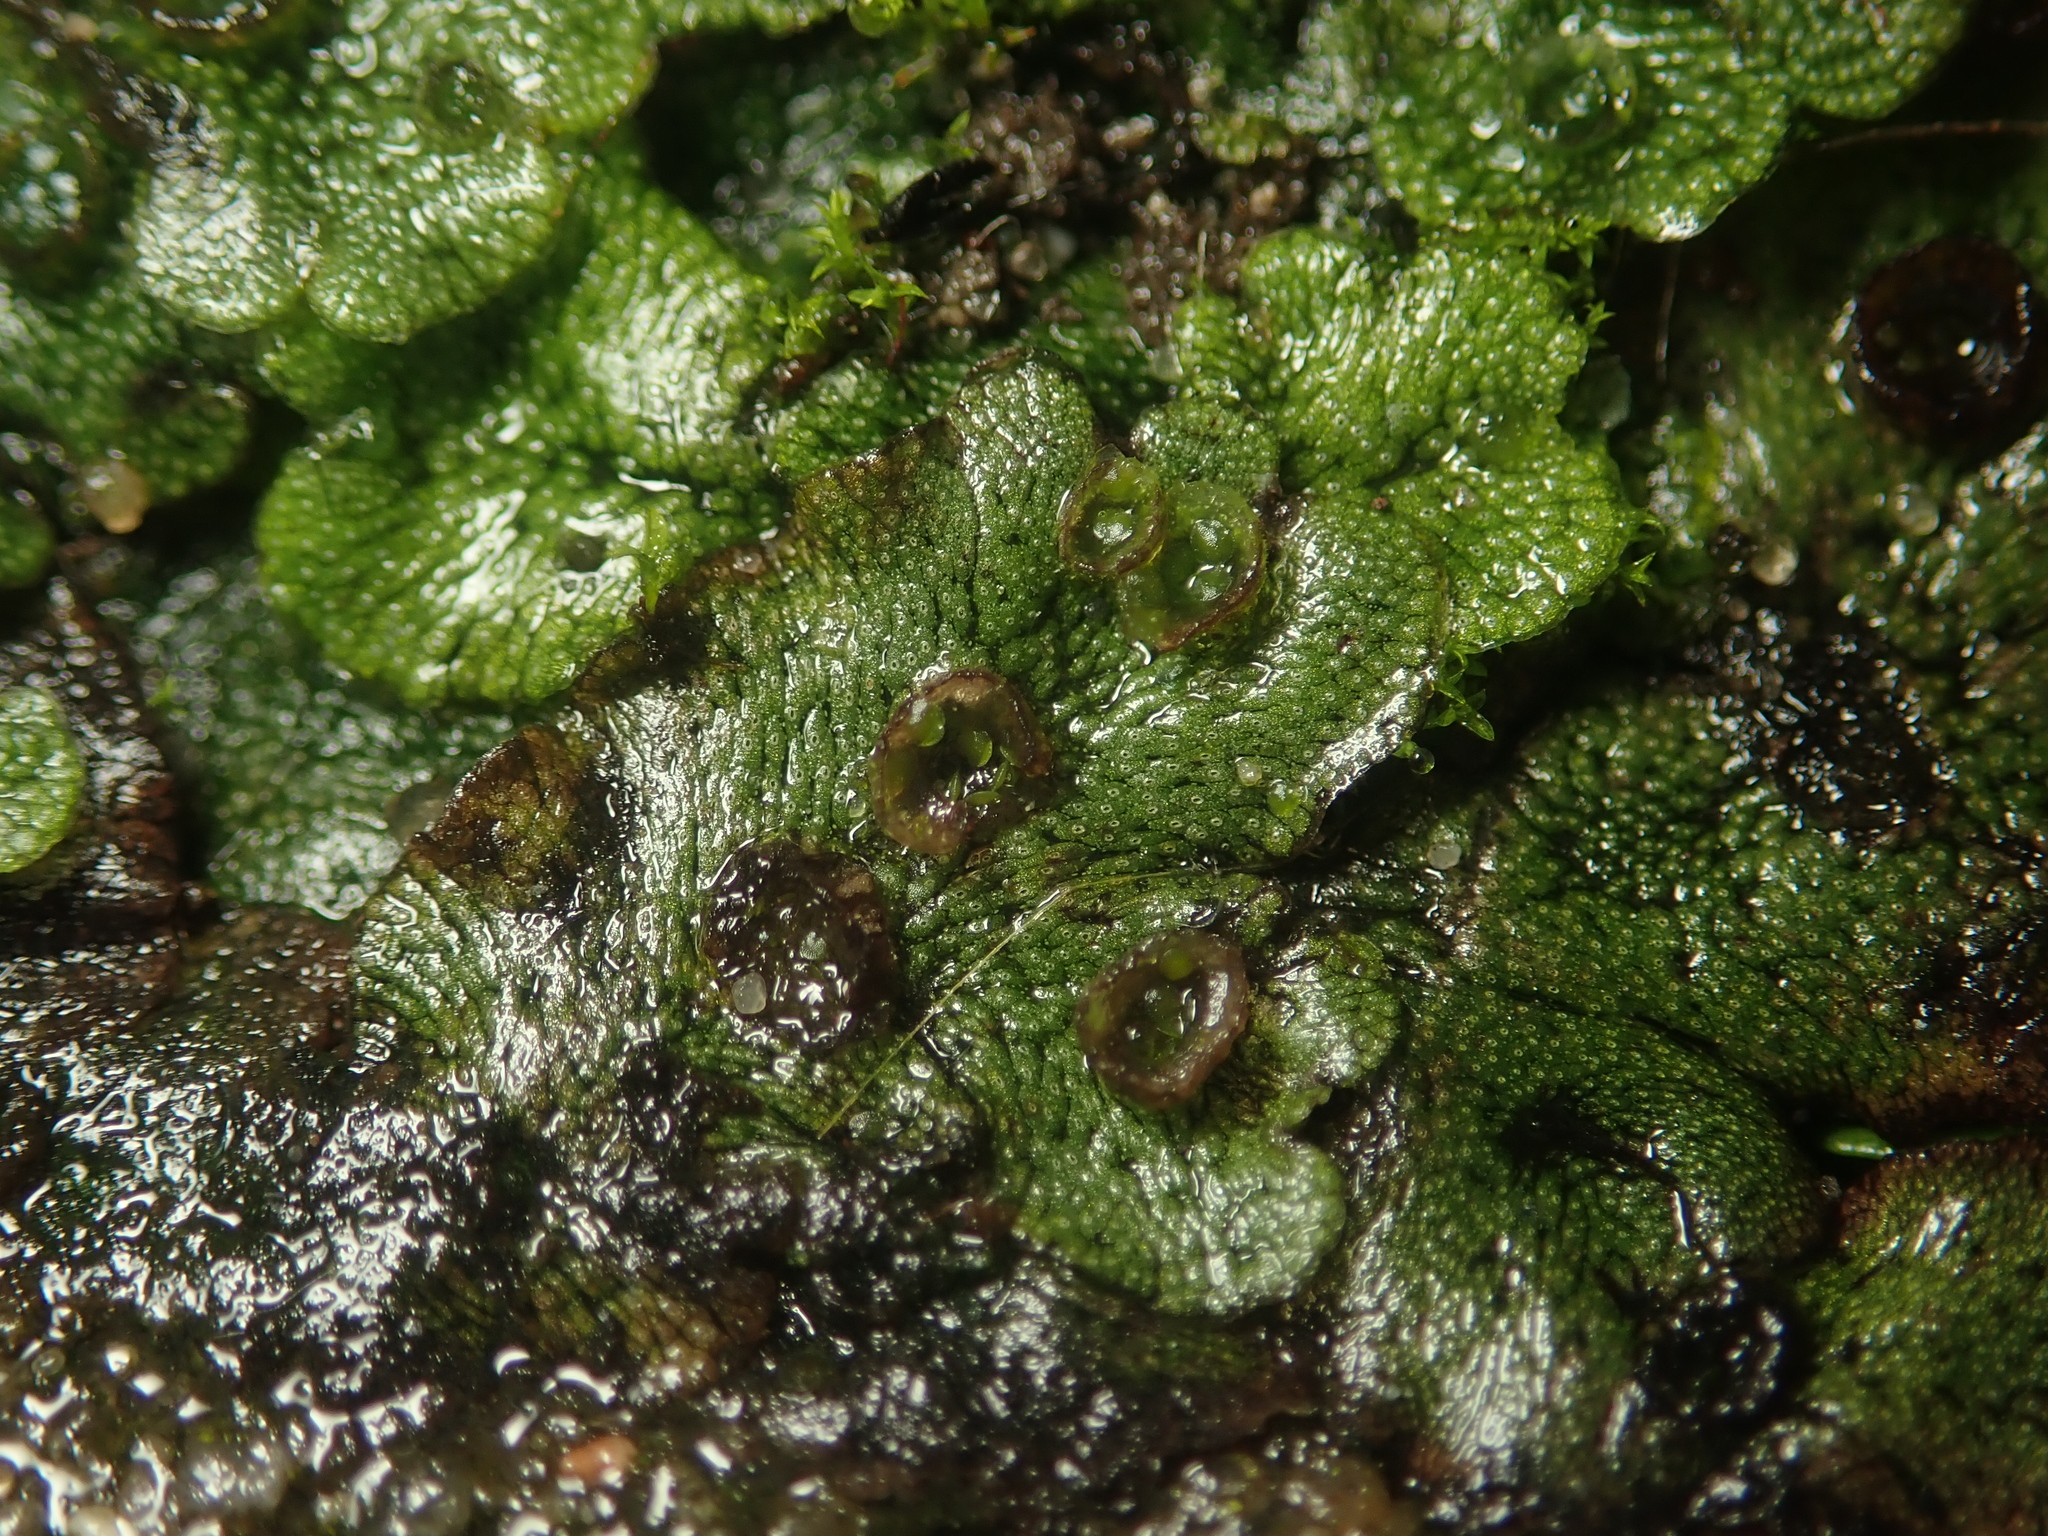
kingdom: Plantae
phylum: Marchantiophyta
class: Marchantiopsida
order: Marchantiales
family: Marchantiaceae
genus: Marchantia
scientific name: Marchantia polymorpha
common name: Common liverwort
